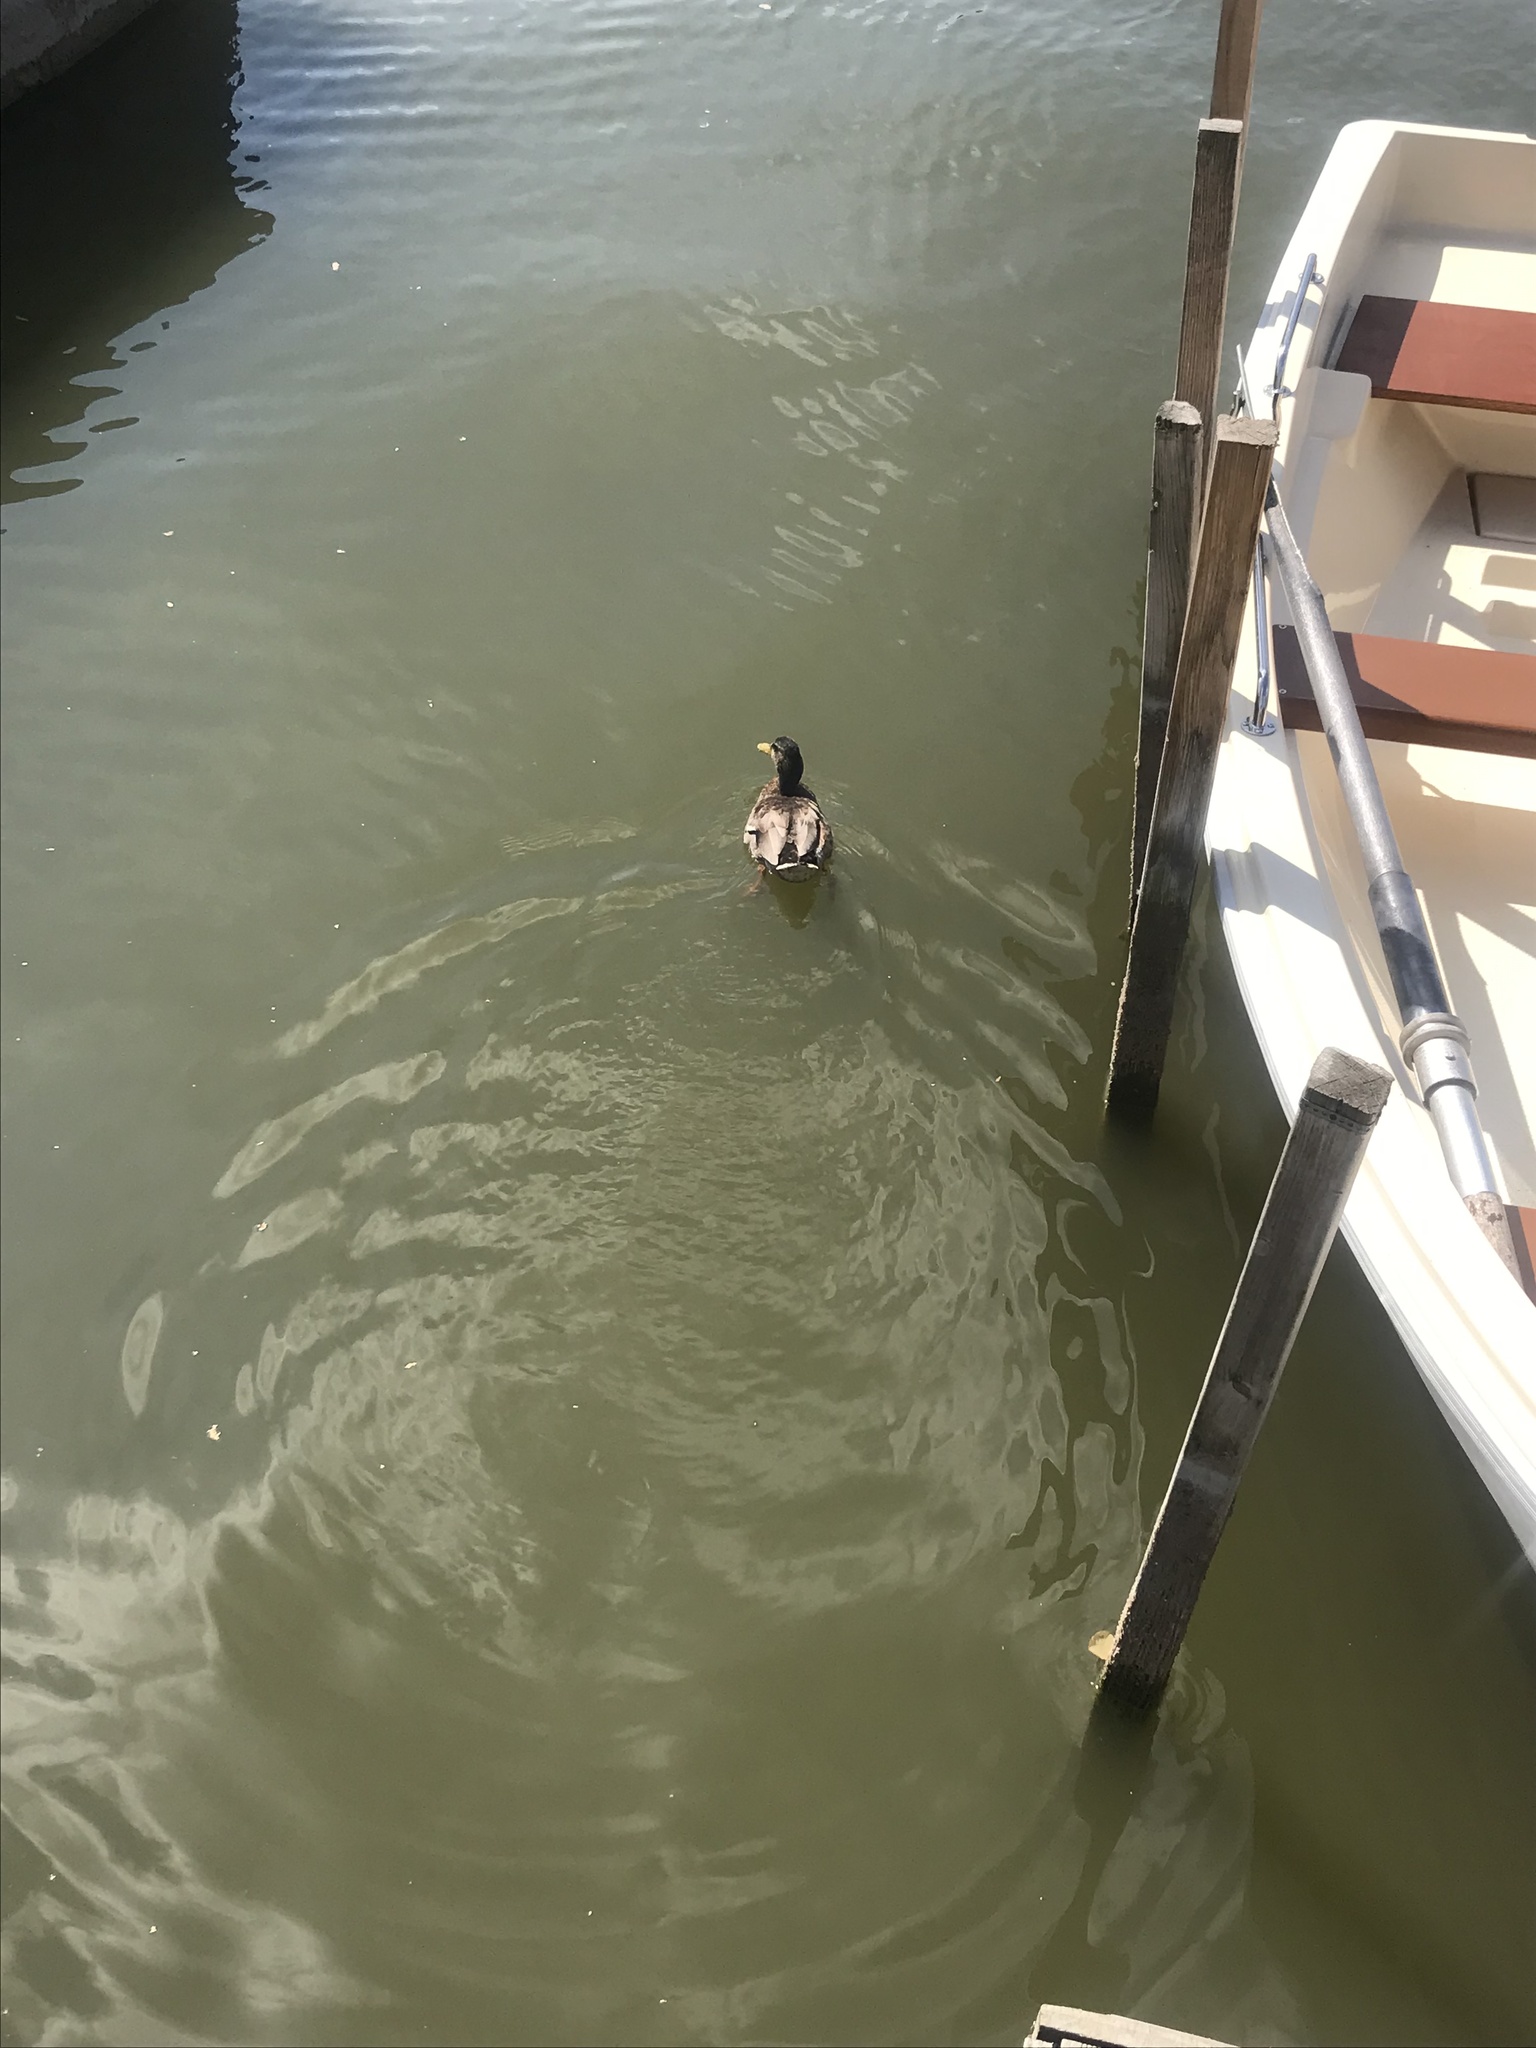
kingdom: Animalia
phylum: Chordata
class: Aves
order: Anseriformes
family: Anatidae
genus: Anas
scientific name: Anas platyrhynchos
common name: Mallard
